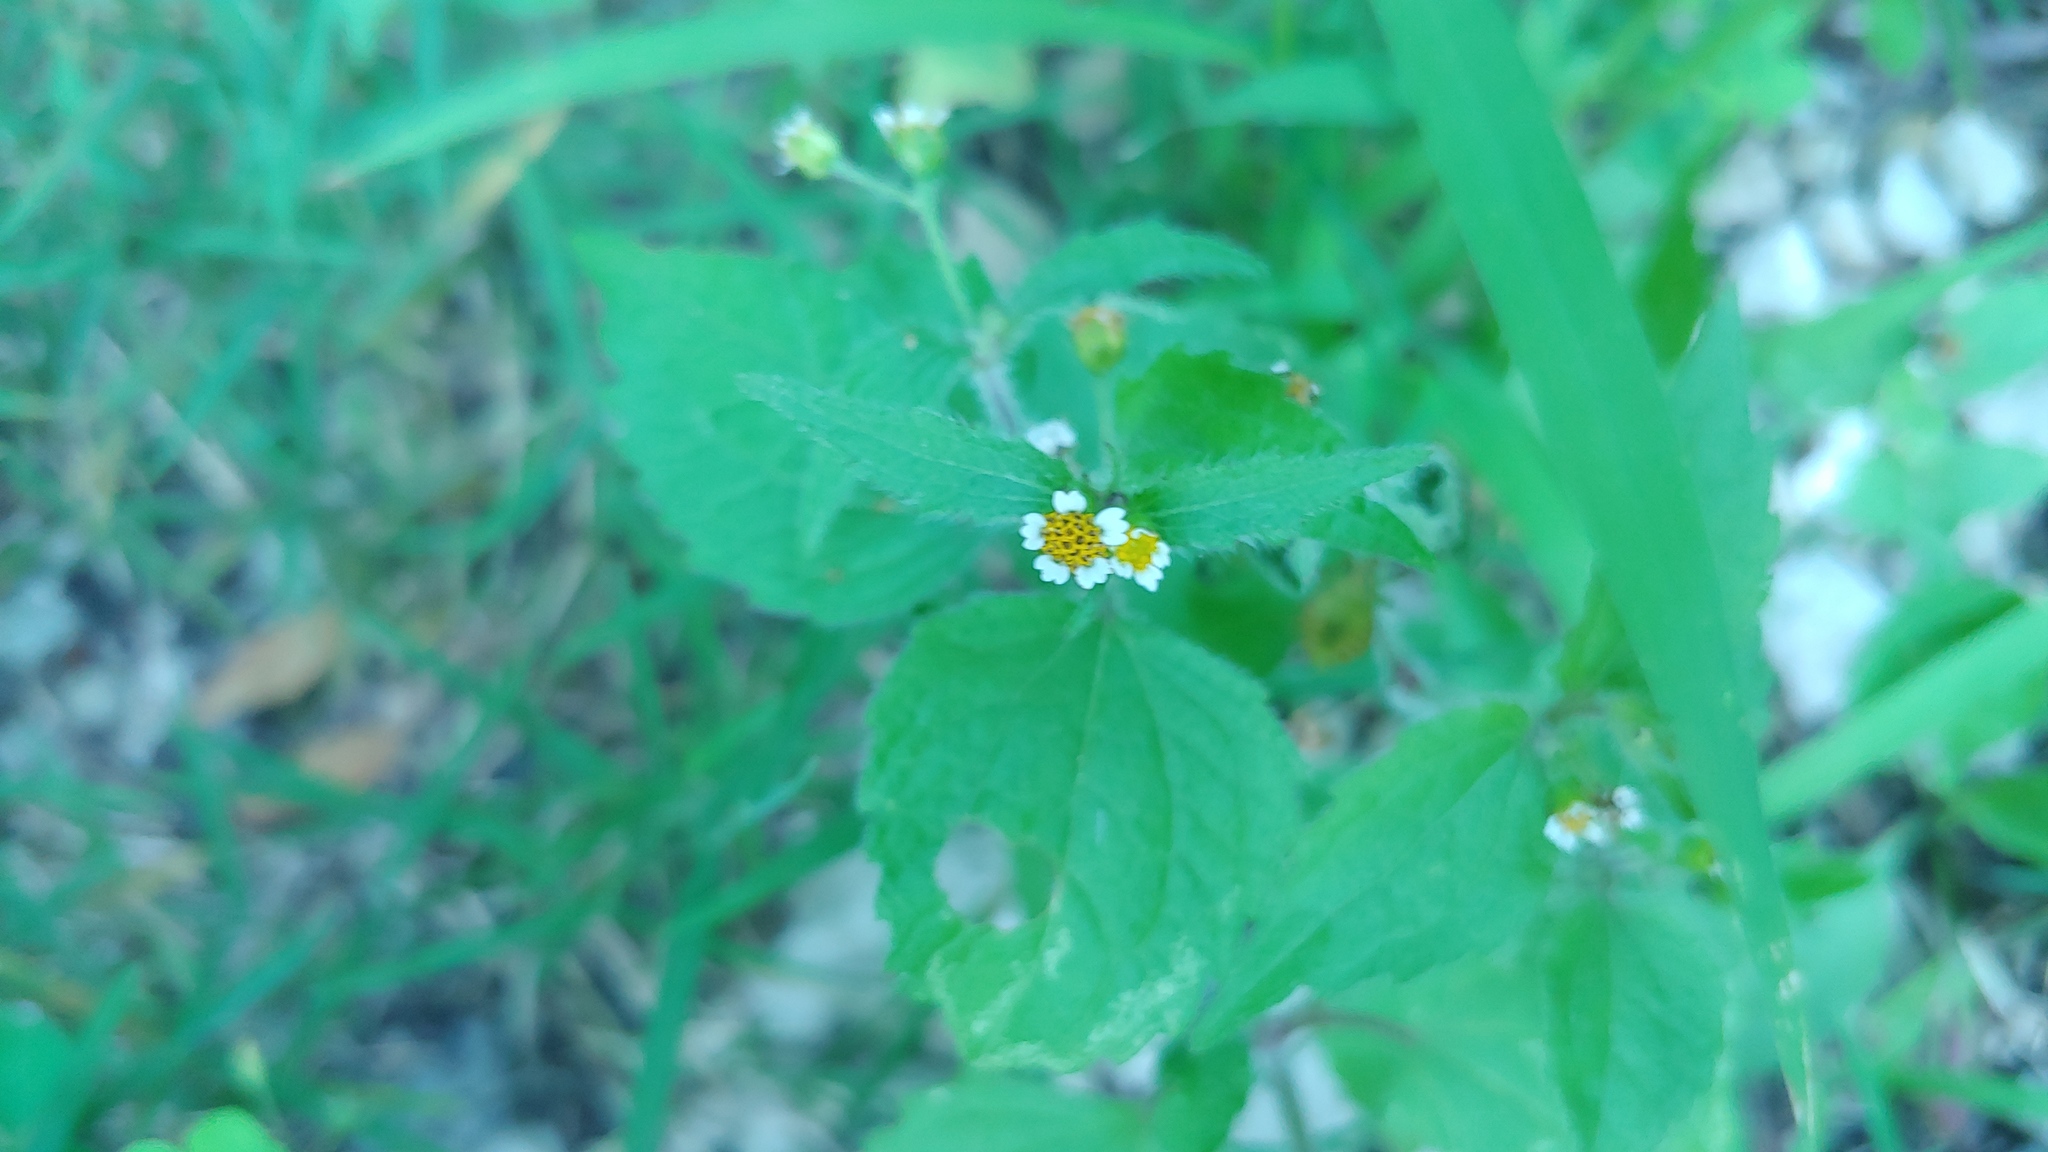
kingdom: Plantae
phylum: Tracheophyta
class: Magnoliopsida
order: Asterales
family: Asteraceae
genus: Galinsoga
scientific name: Galinsoga quadriradiata
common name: Shaggy soldier
